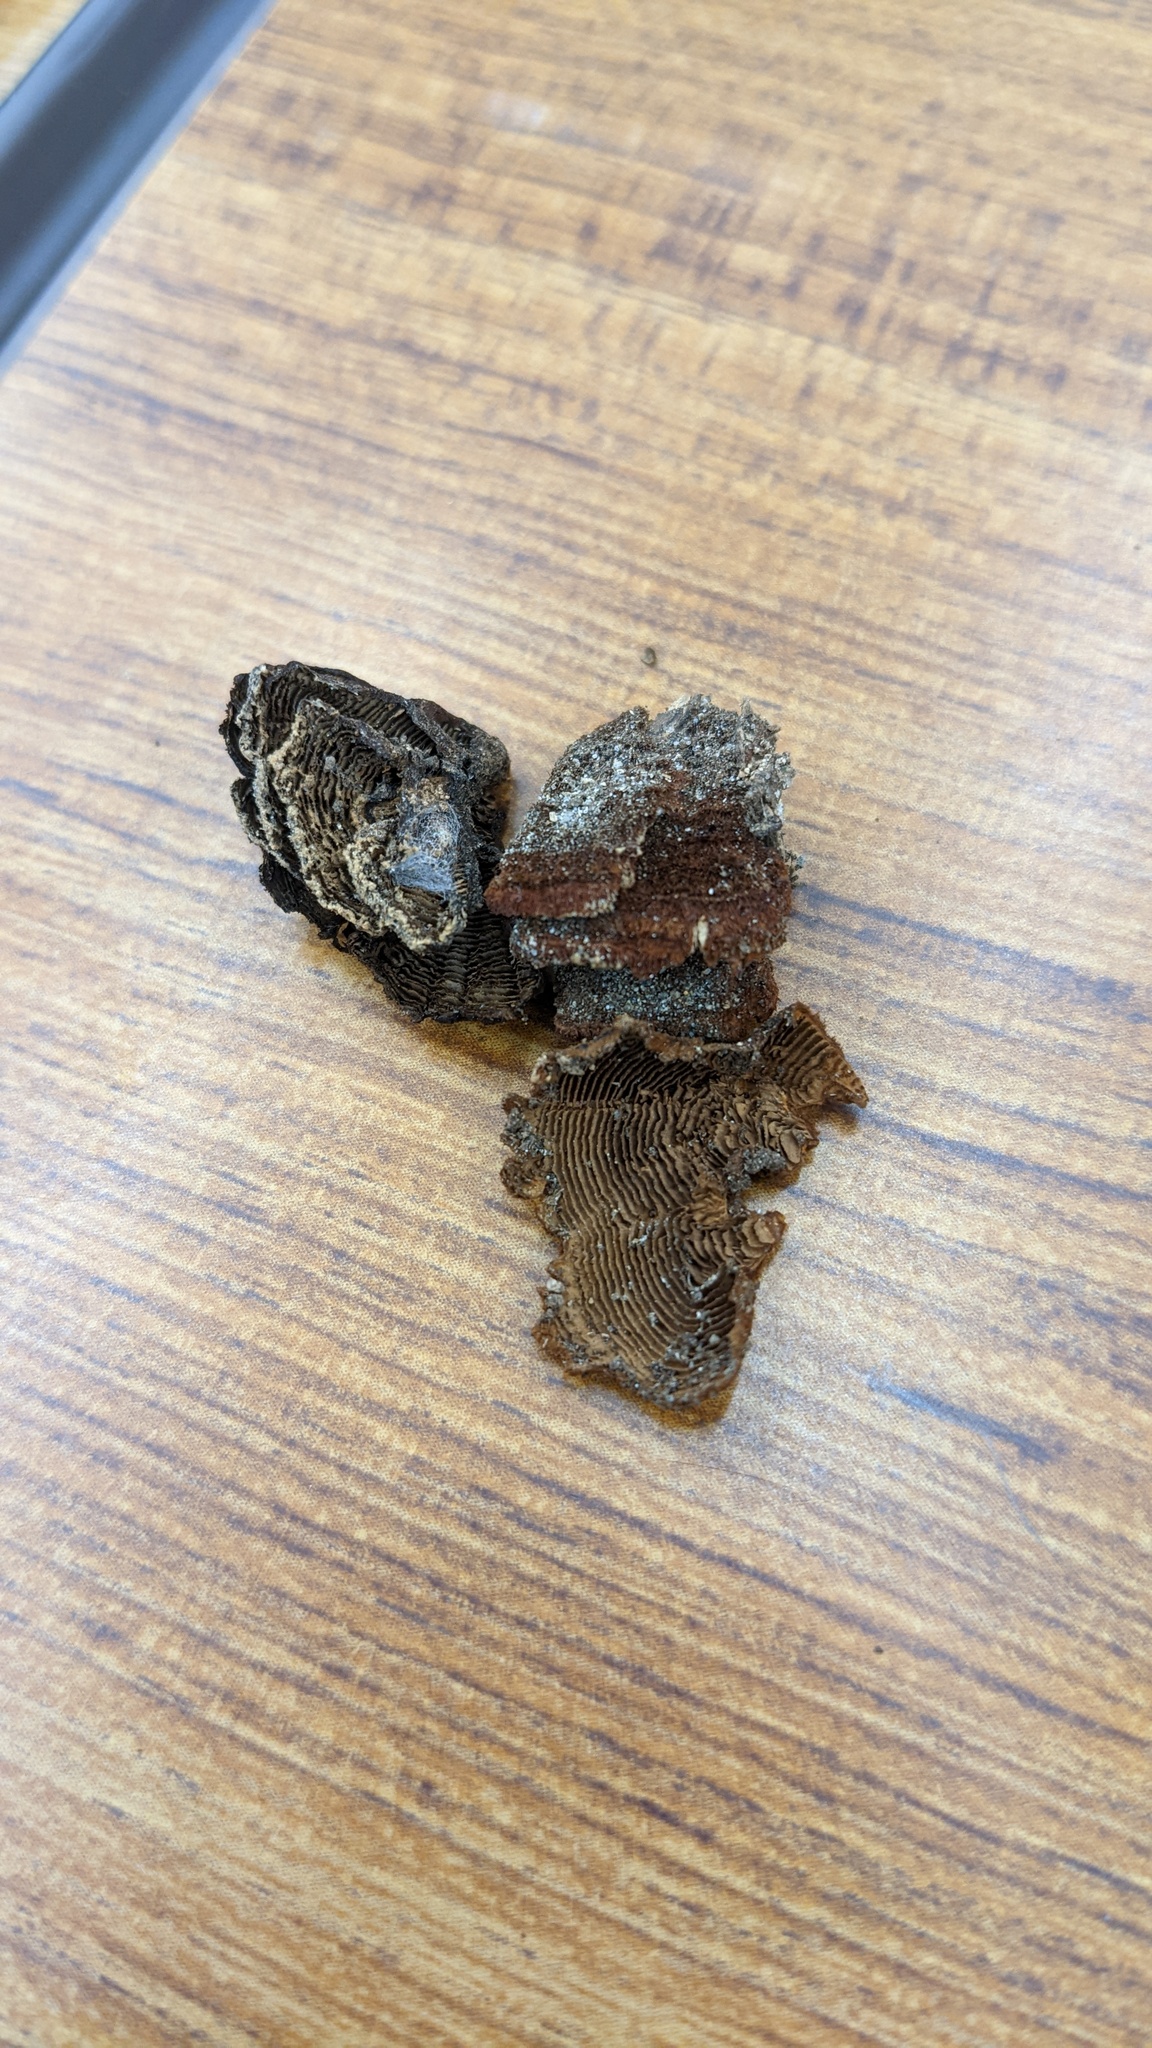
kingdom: Fungi
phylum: Basidiomycota
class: Agaricomycetes
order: Hymenochaetales
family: Hymenochaetaceae
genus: Hymenochaete
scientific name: Hymenochaete cyclolamellata
